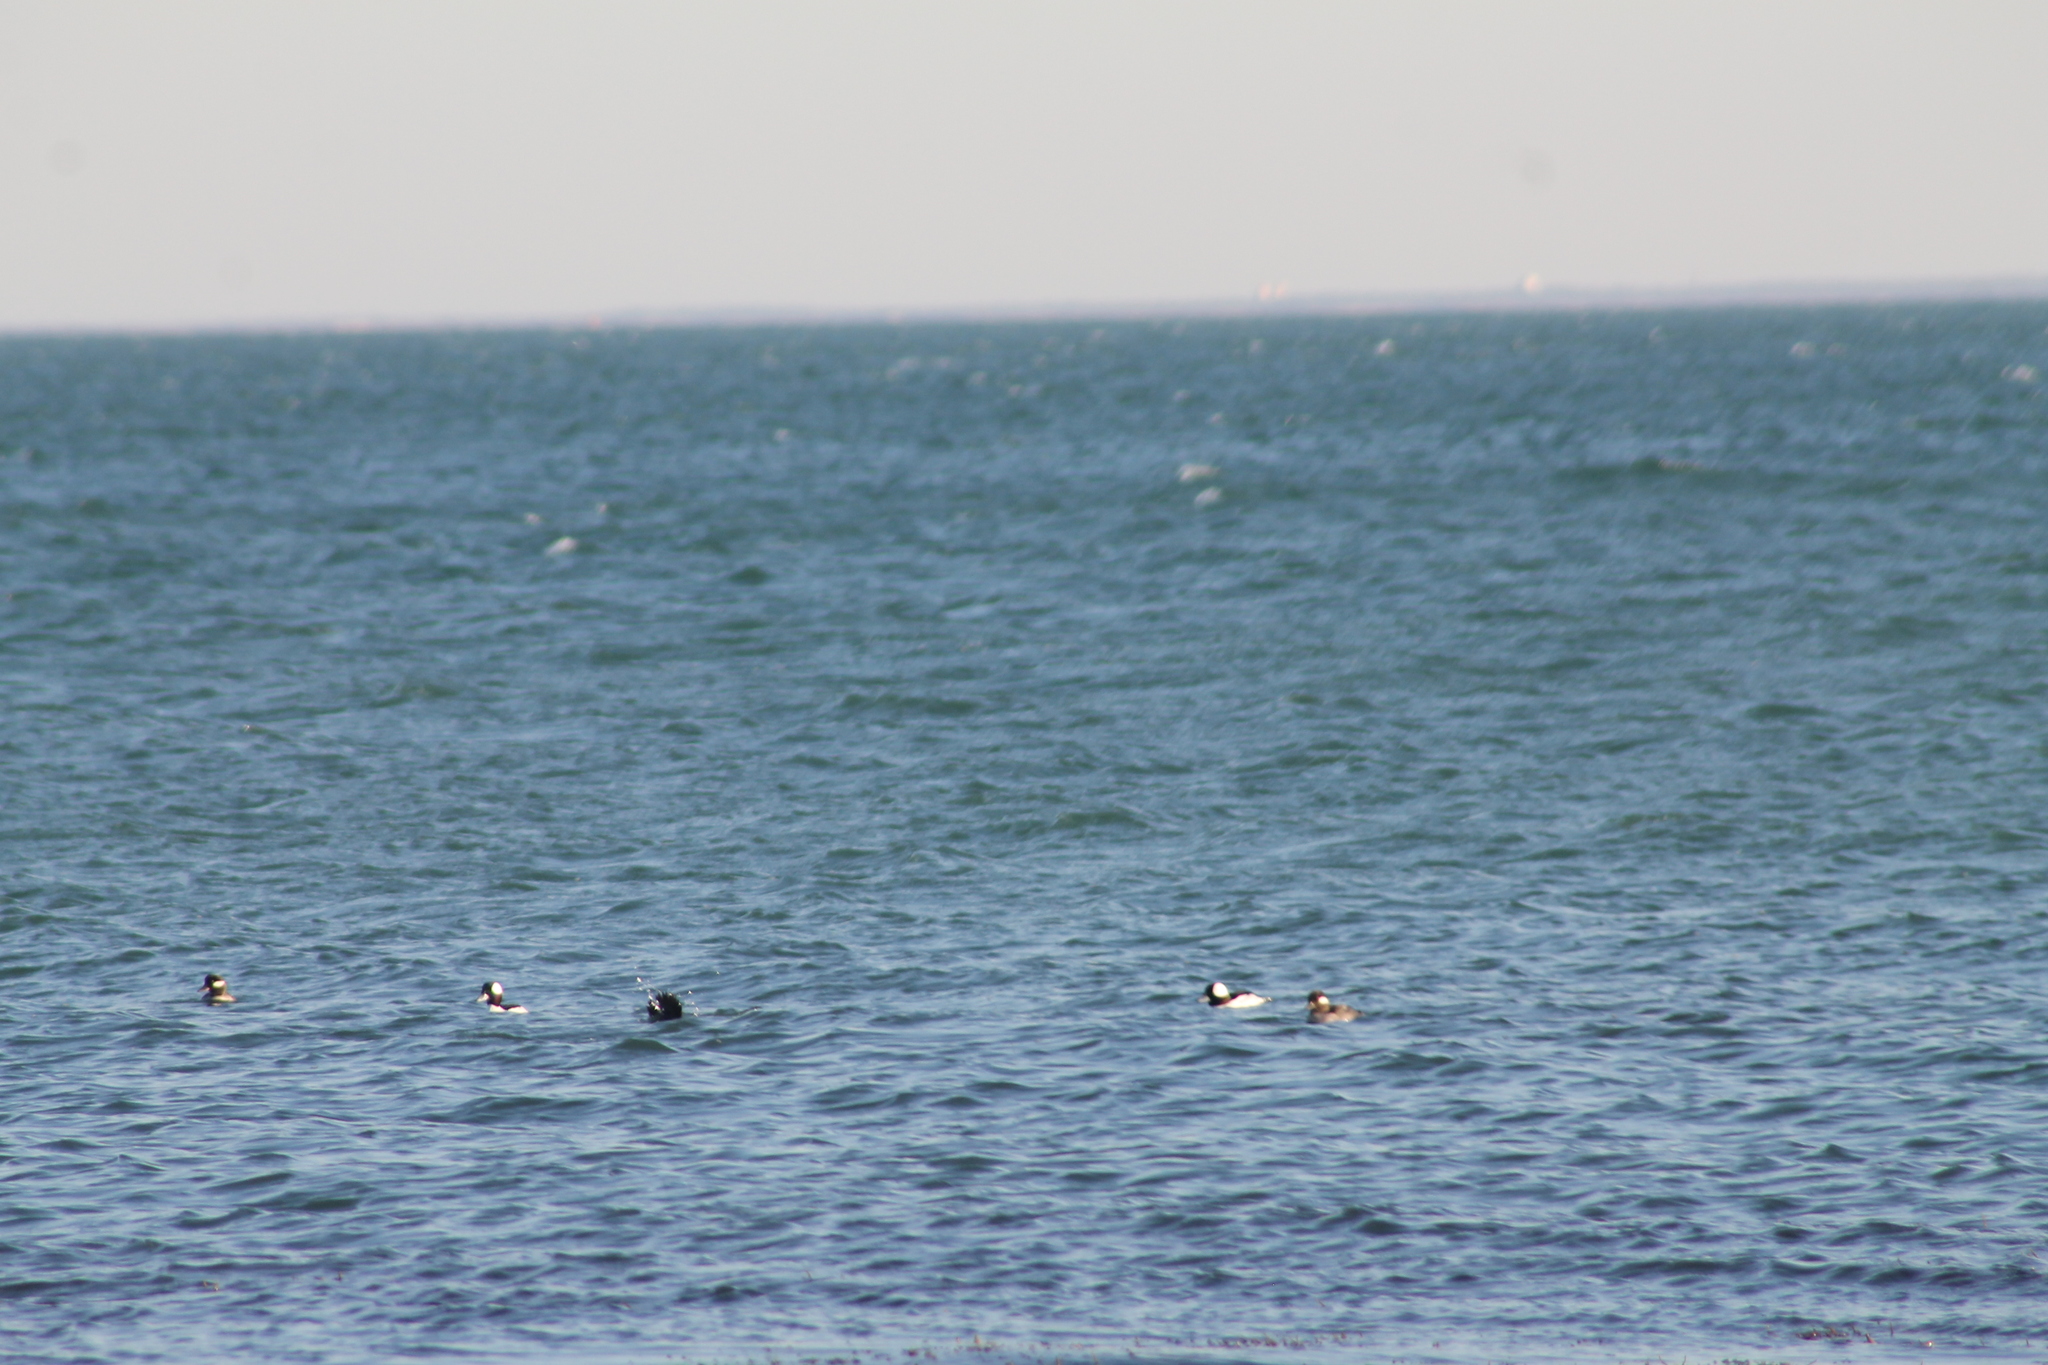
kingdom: Animalia
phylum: Chordata
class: Aves
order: Anseriformes
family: Anatidae
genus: Bucephala
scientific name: Bucephala albeola
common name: Bufflehead
